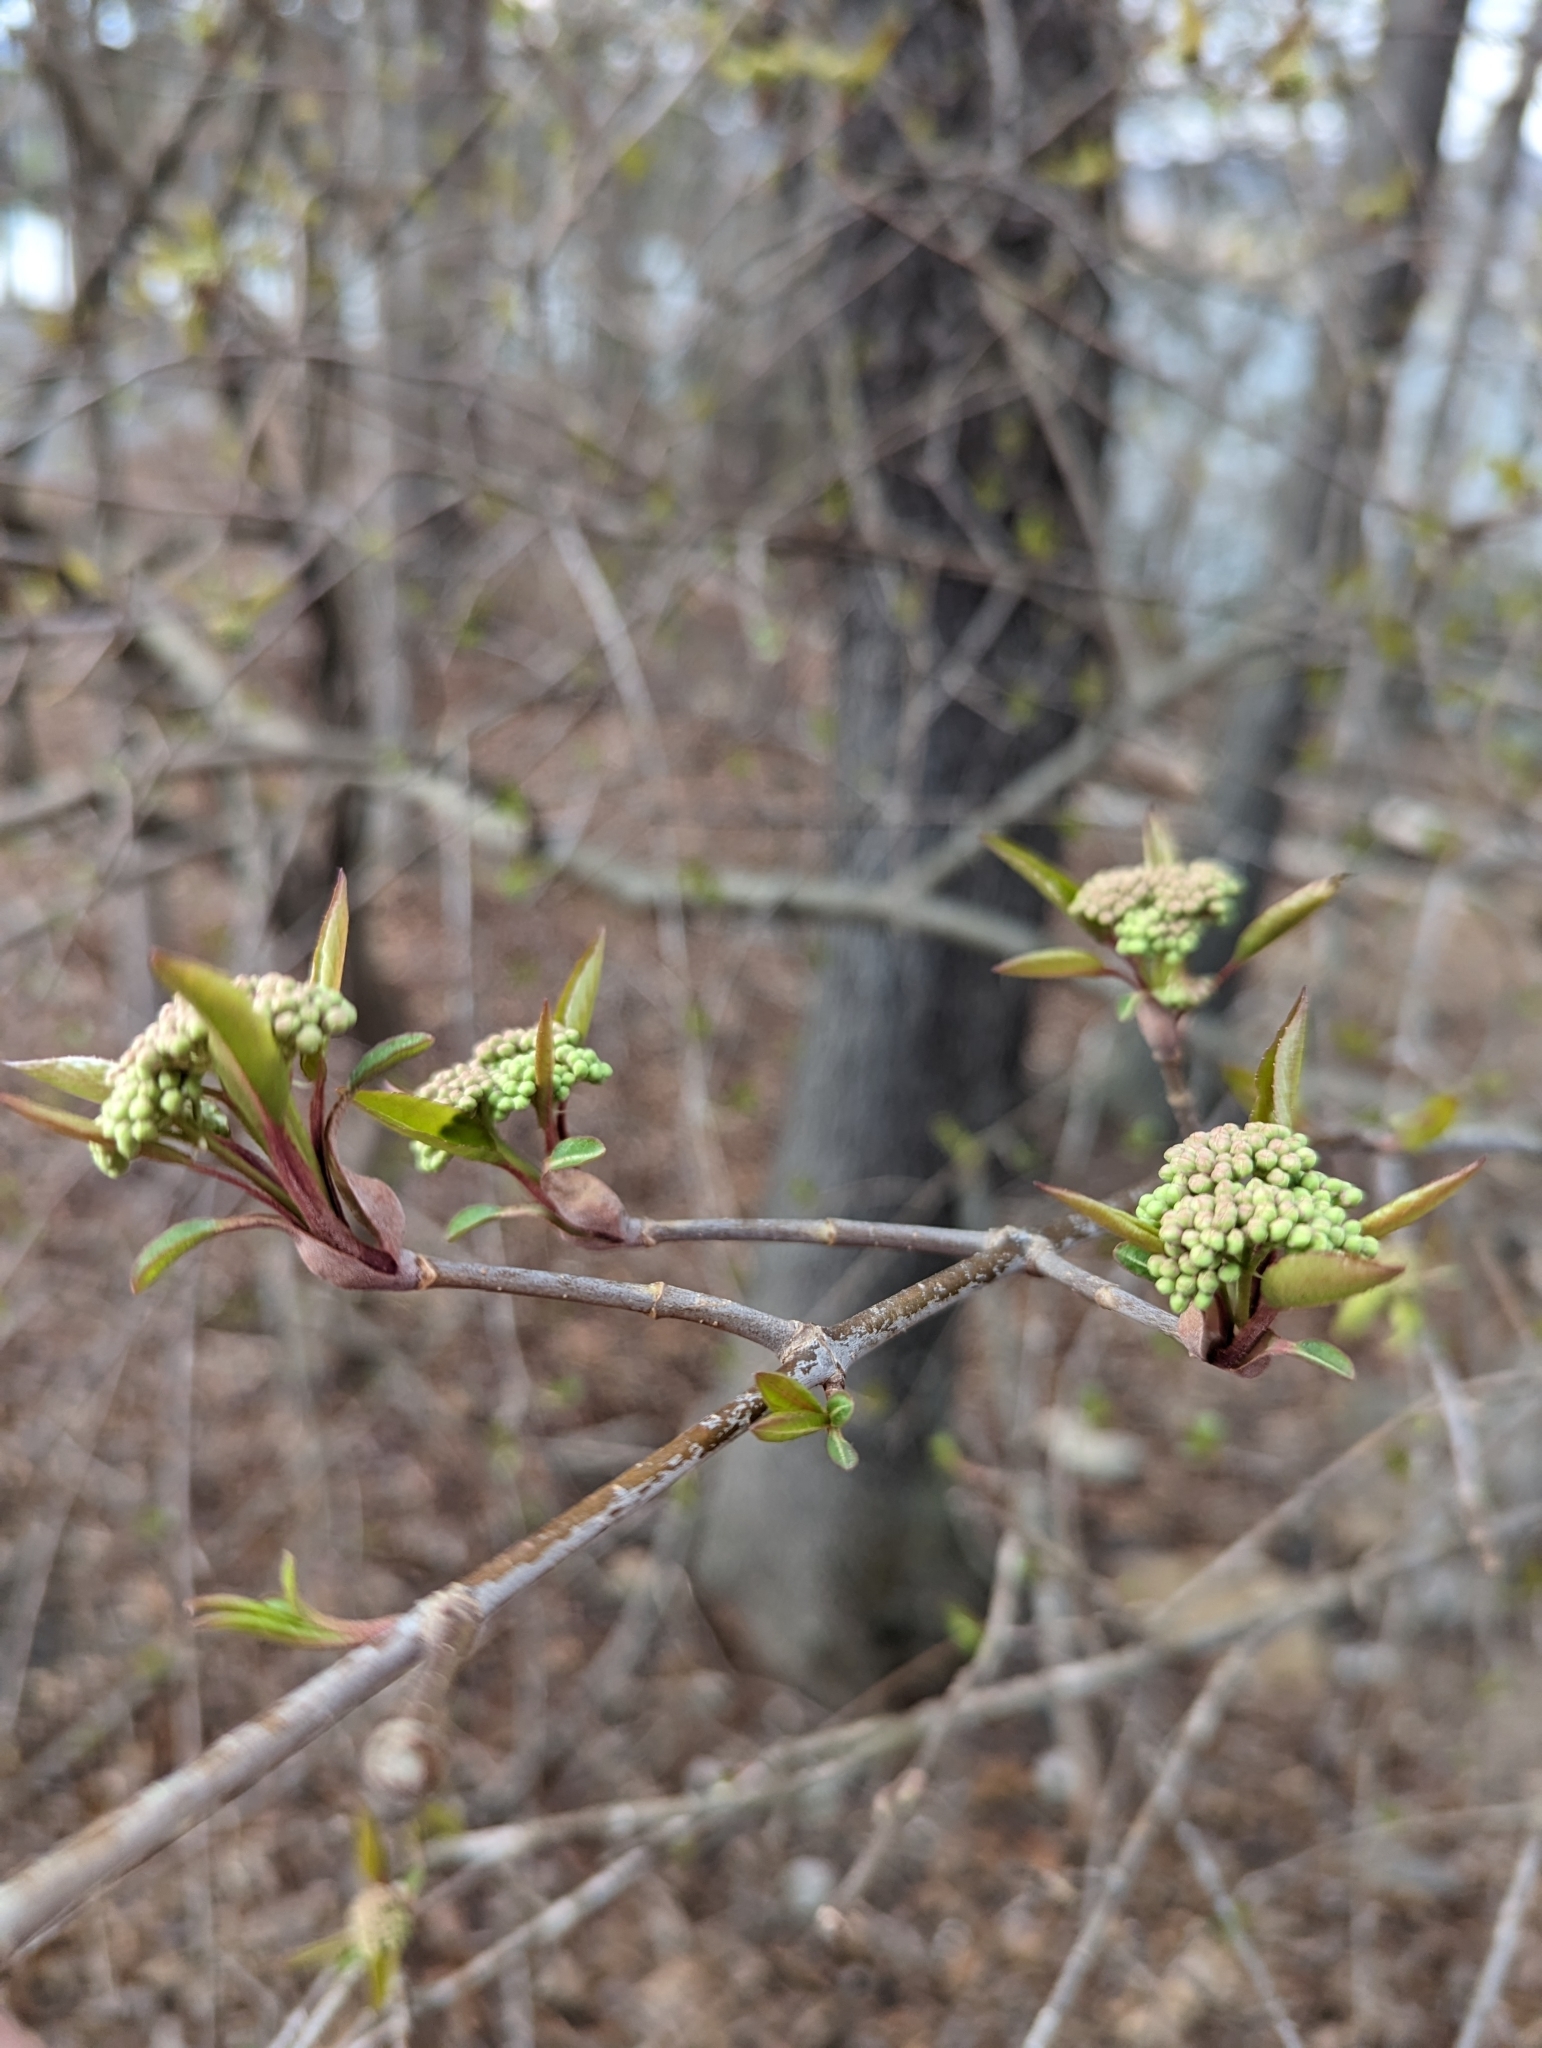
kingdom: Plantae
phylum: Tracheophyta
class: Magnoliopsida
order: Dipsacales
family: Viburnaceae
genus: Viburnum
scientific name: Viburnum prunifolium
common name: Black haw
